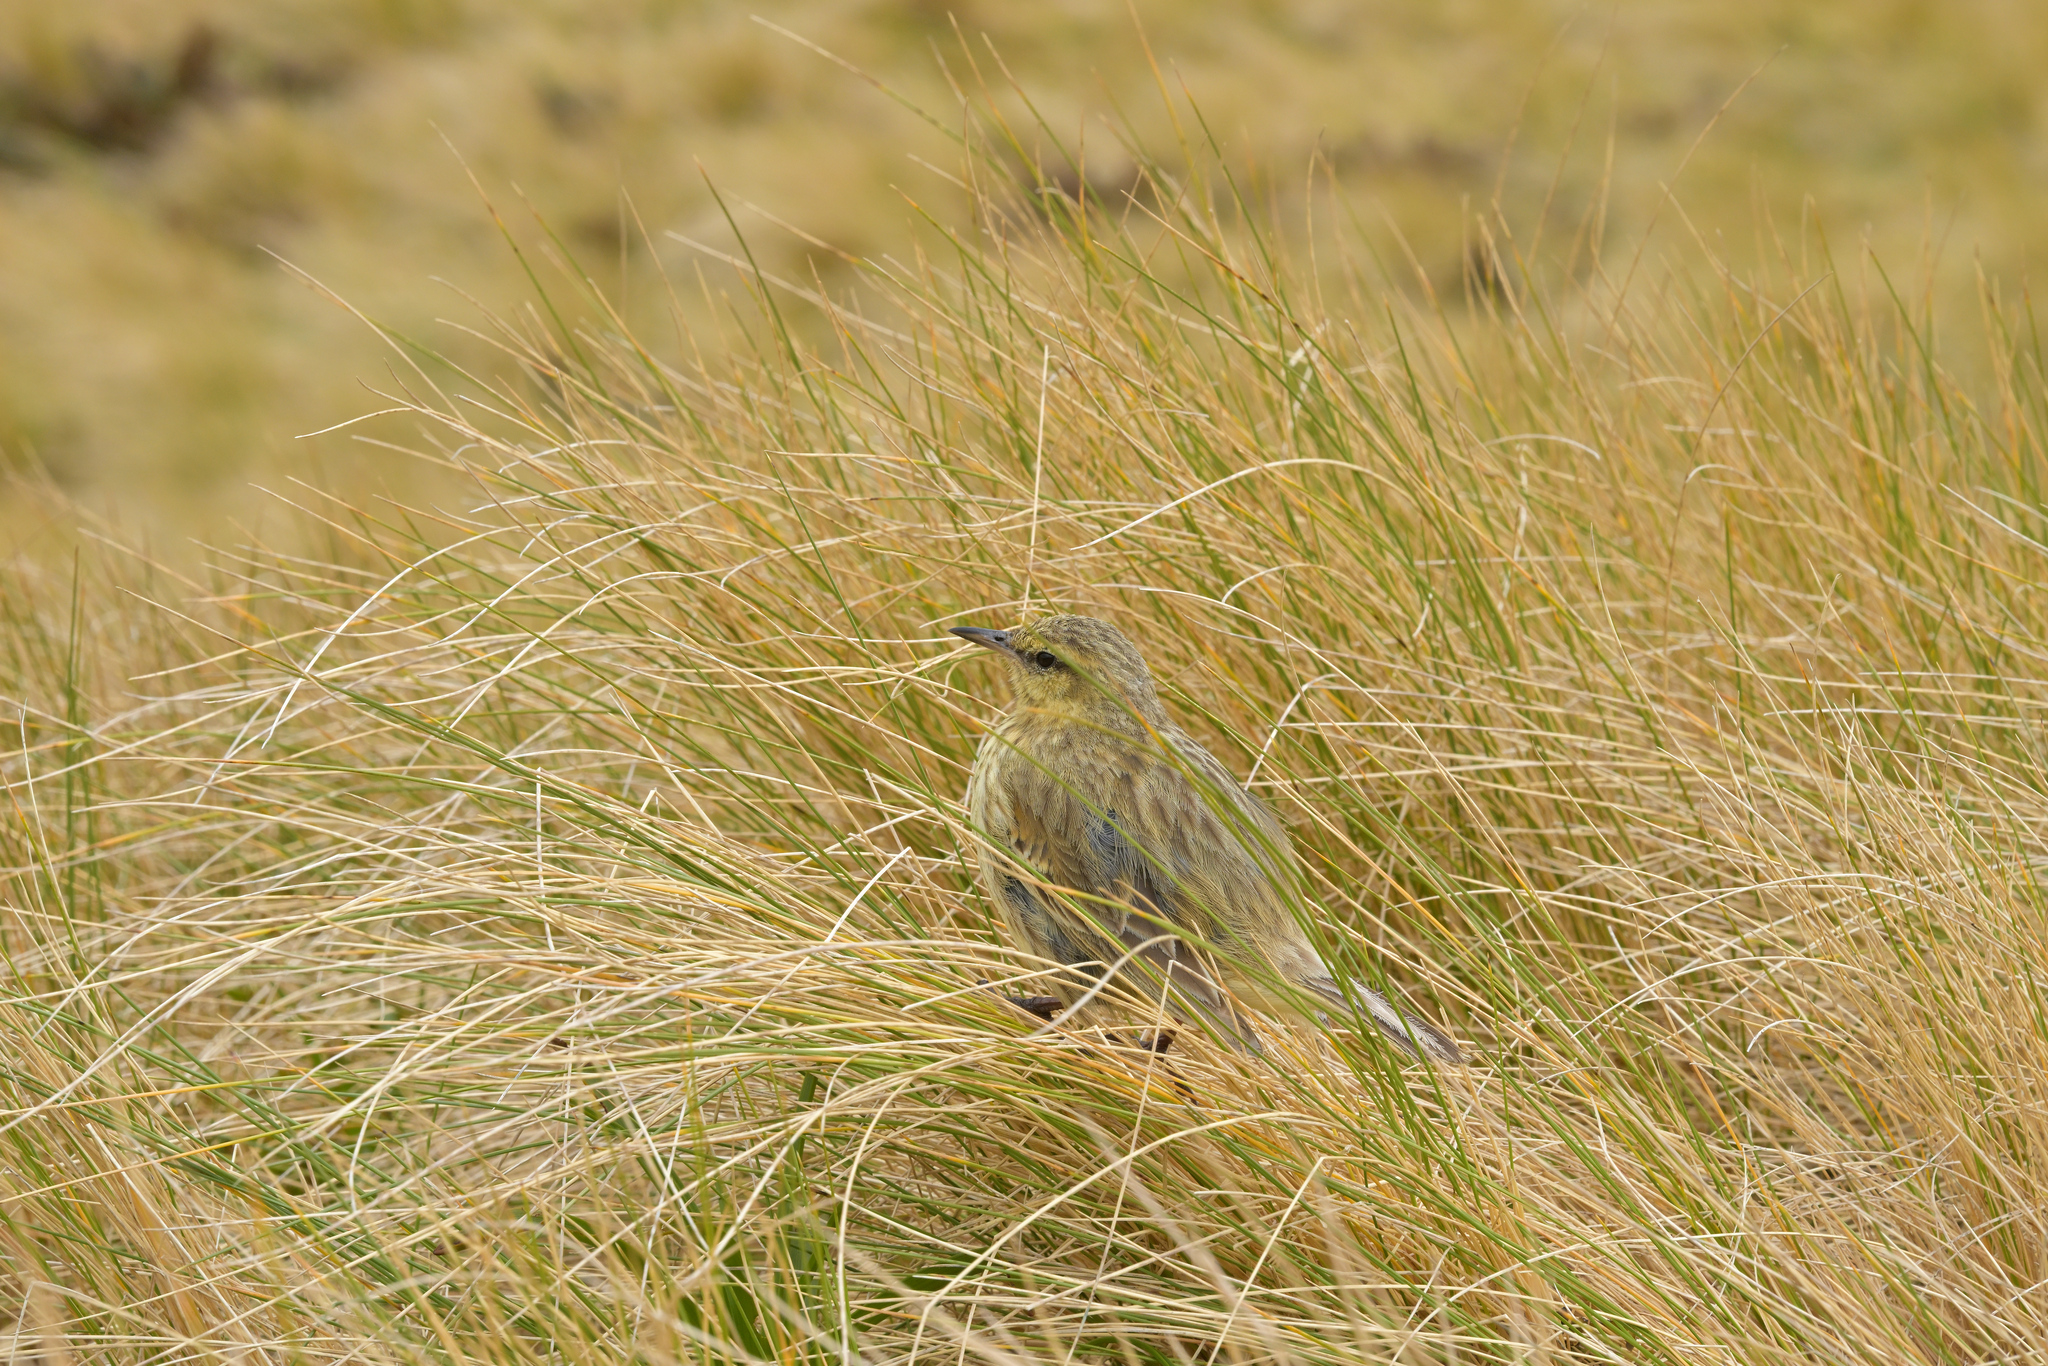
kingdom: Animalia
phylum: Chordata
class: Aves
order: Passeriformes
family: Motacillidae
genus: Anthus
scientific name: Anthus novaeseelandiae
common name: New zealand pipit
